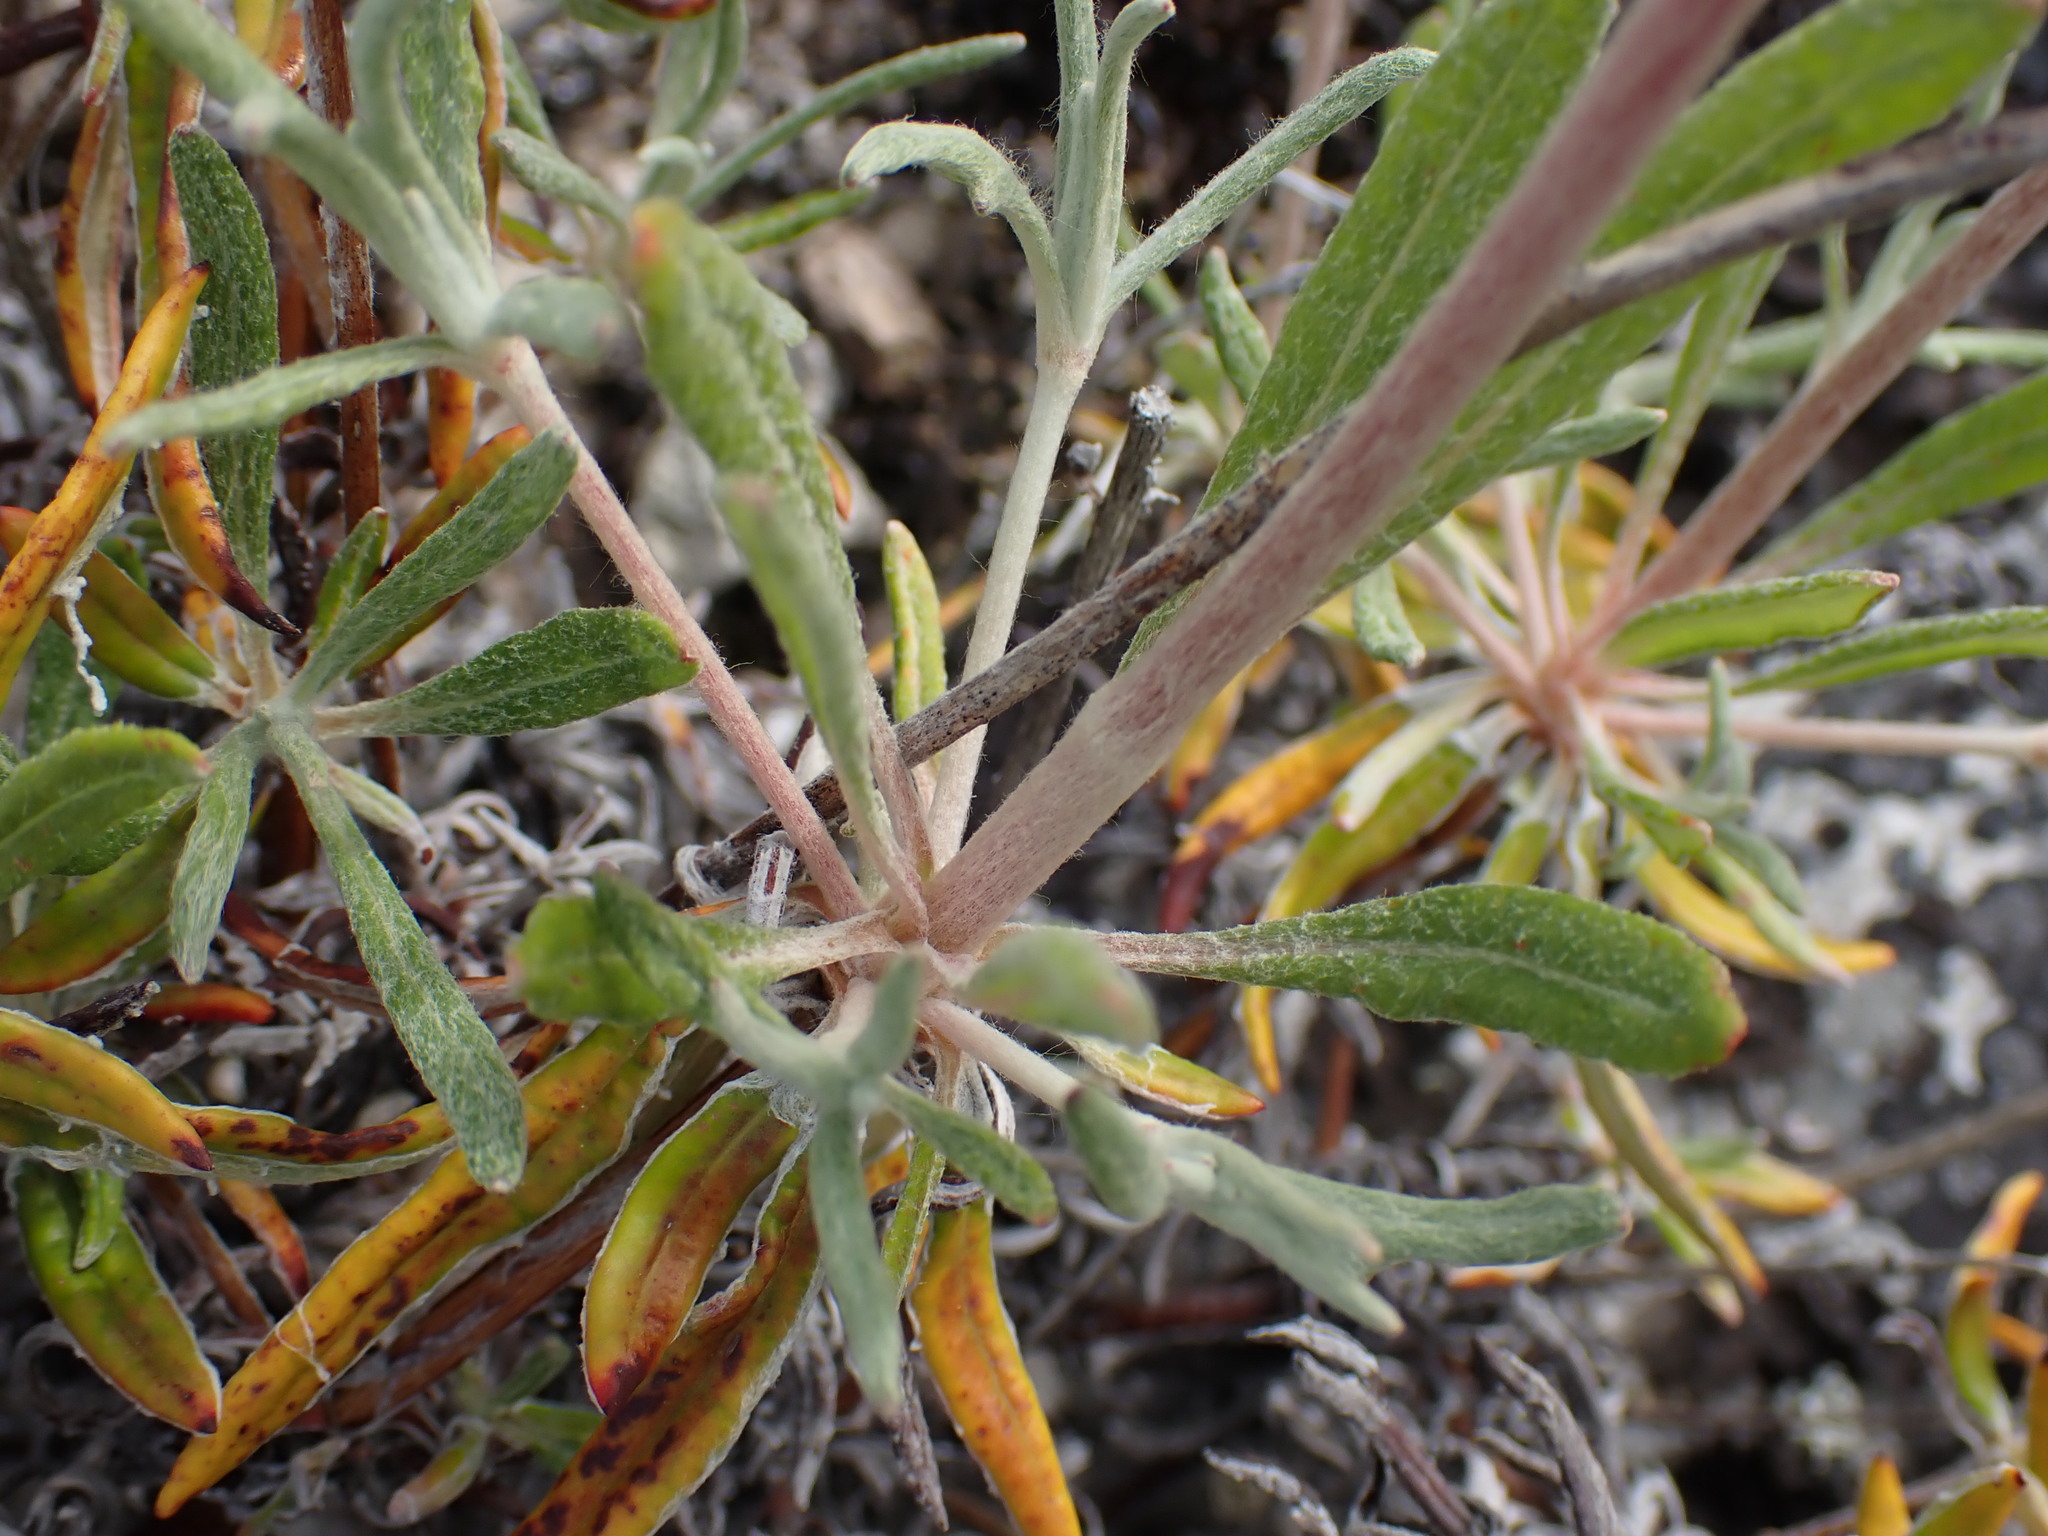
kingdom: Plantae
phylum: Tracheophyta
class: Magnoliopsida
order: Caryophyllales
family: Polygonaceae
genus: Eriogonum
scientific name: Eriogonum heracleoides
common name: Wyeth's buckwheat
